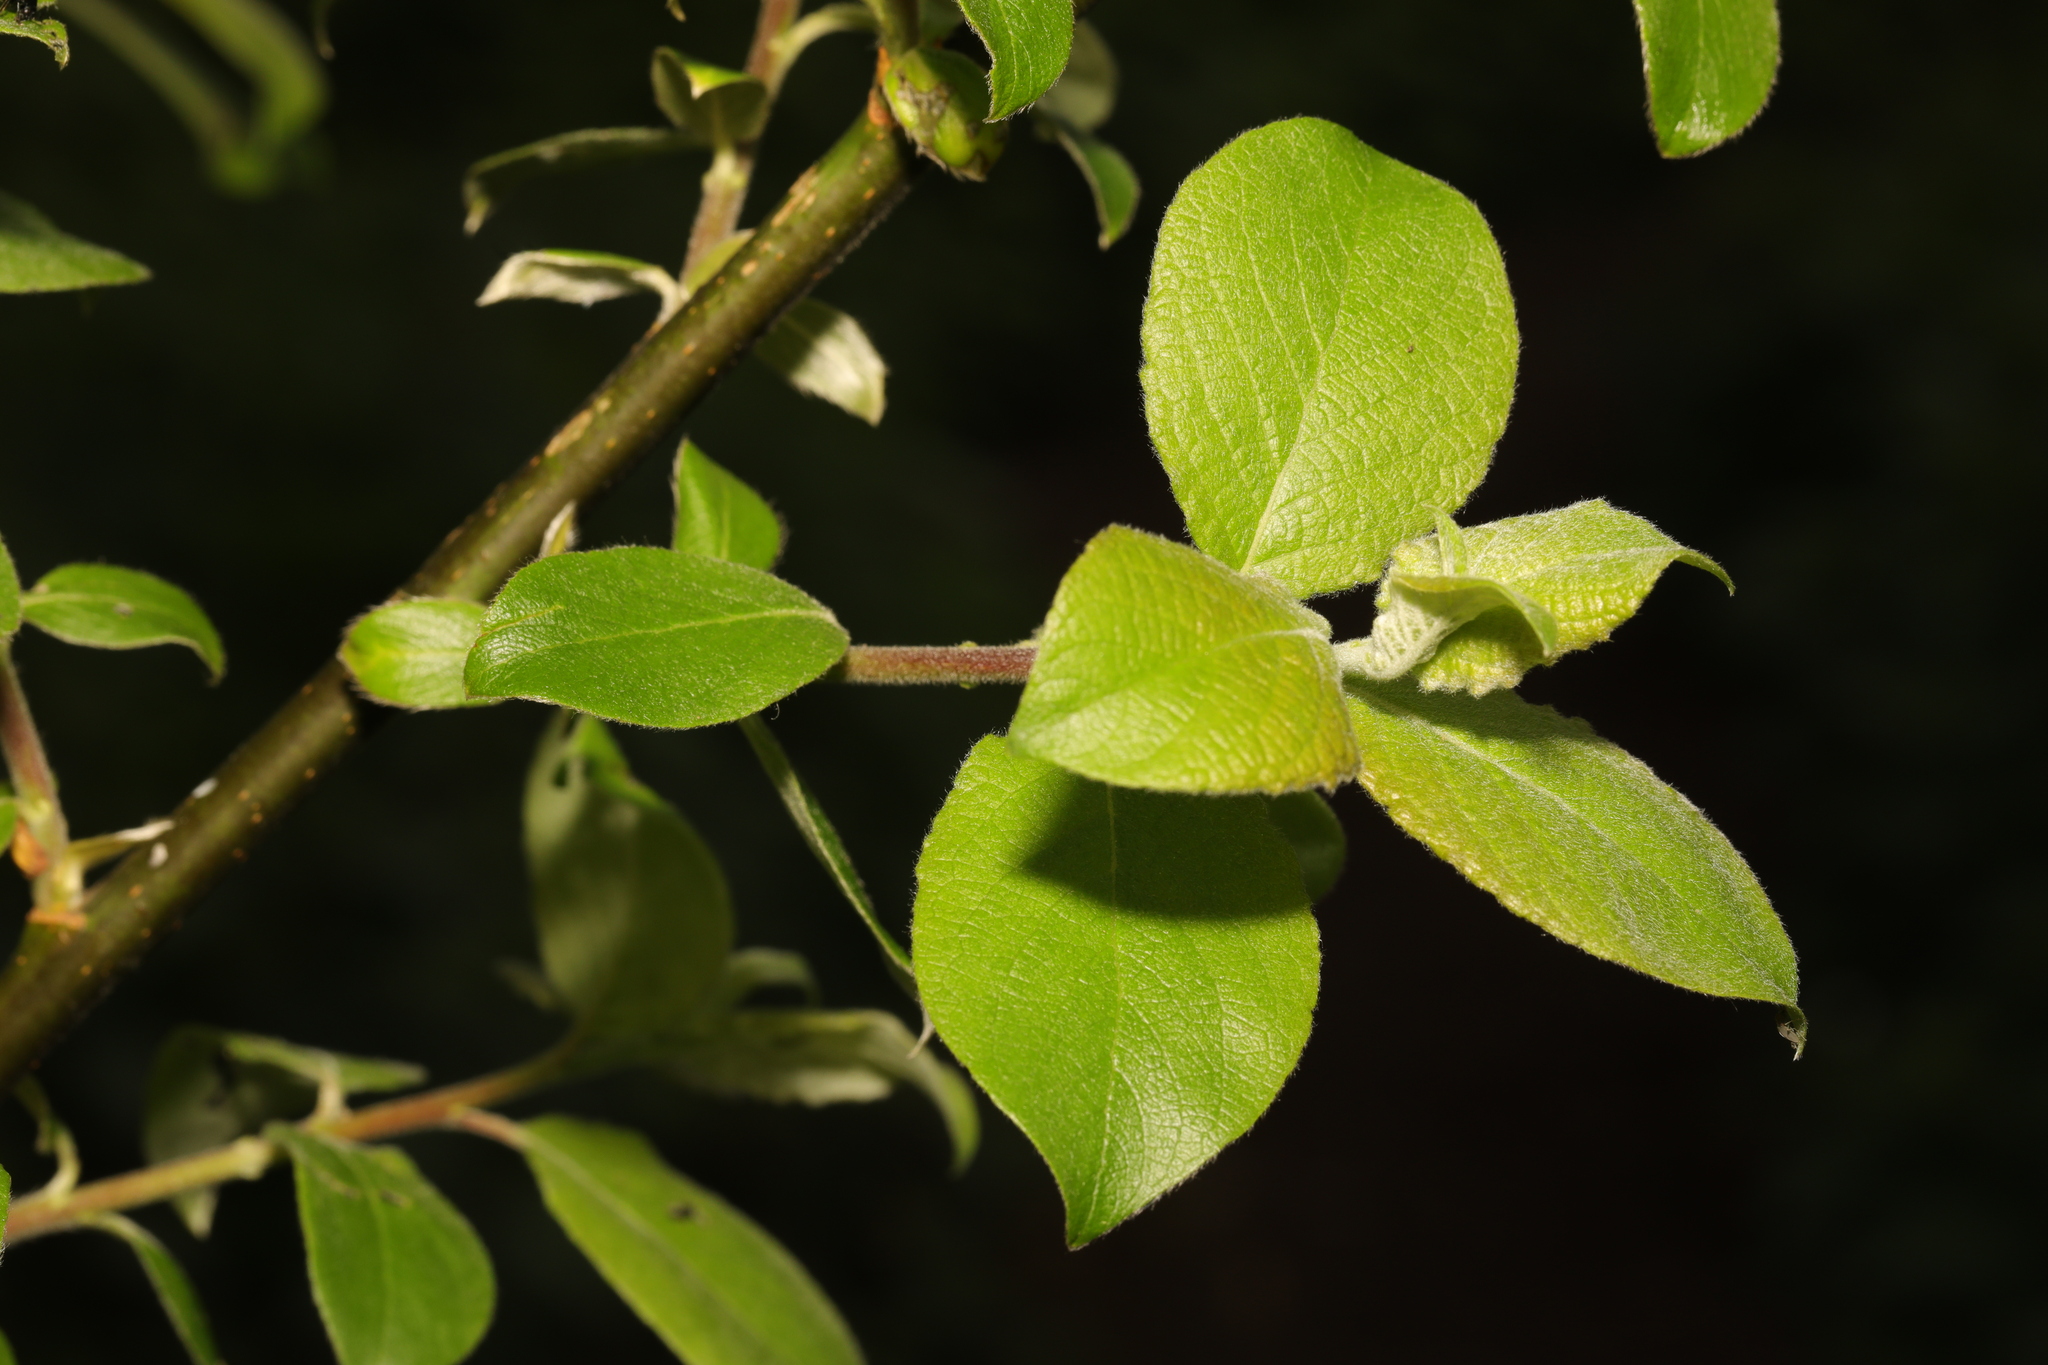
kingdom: Plantae
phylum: Tracheophyta
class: Magnoliopsida
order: Malpighiales
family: Salicaceae
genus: Salix
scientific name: Salix caprea
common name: Goat willow
